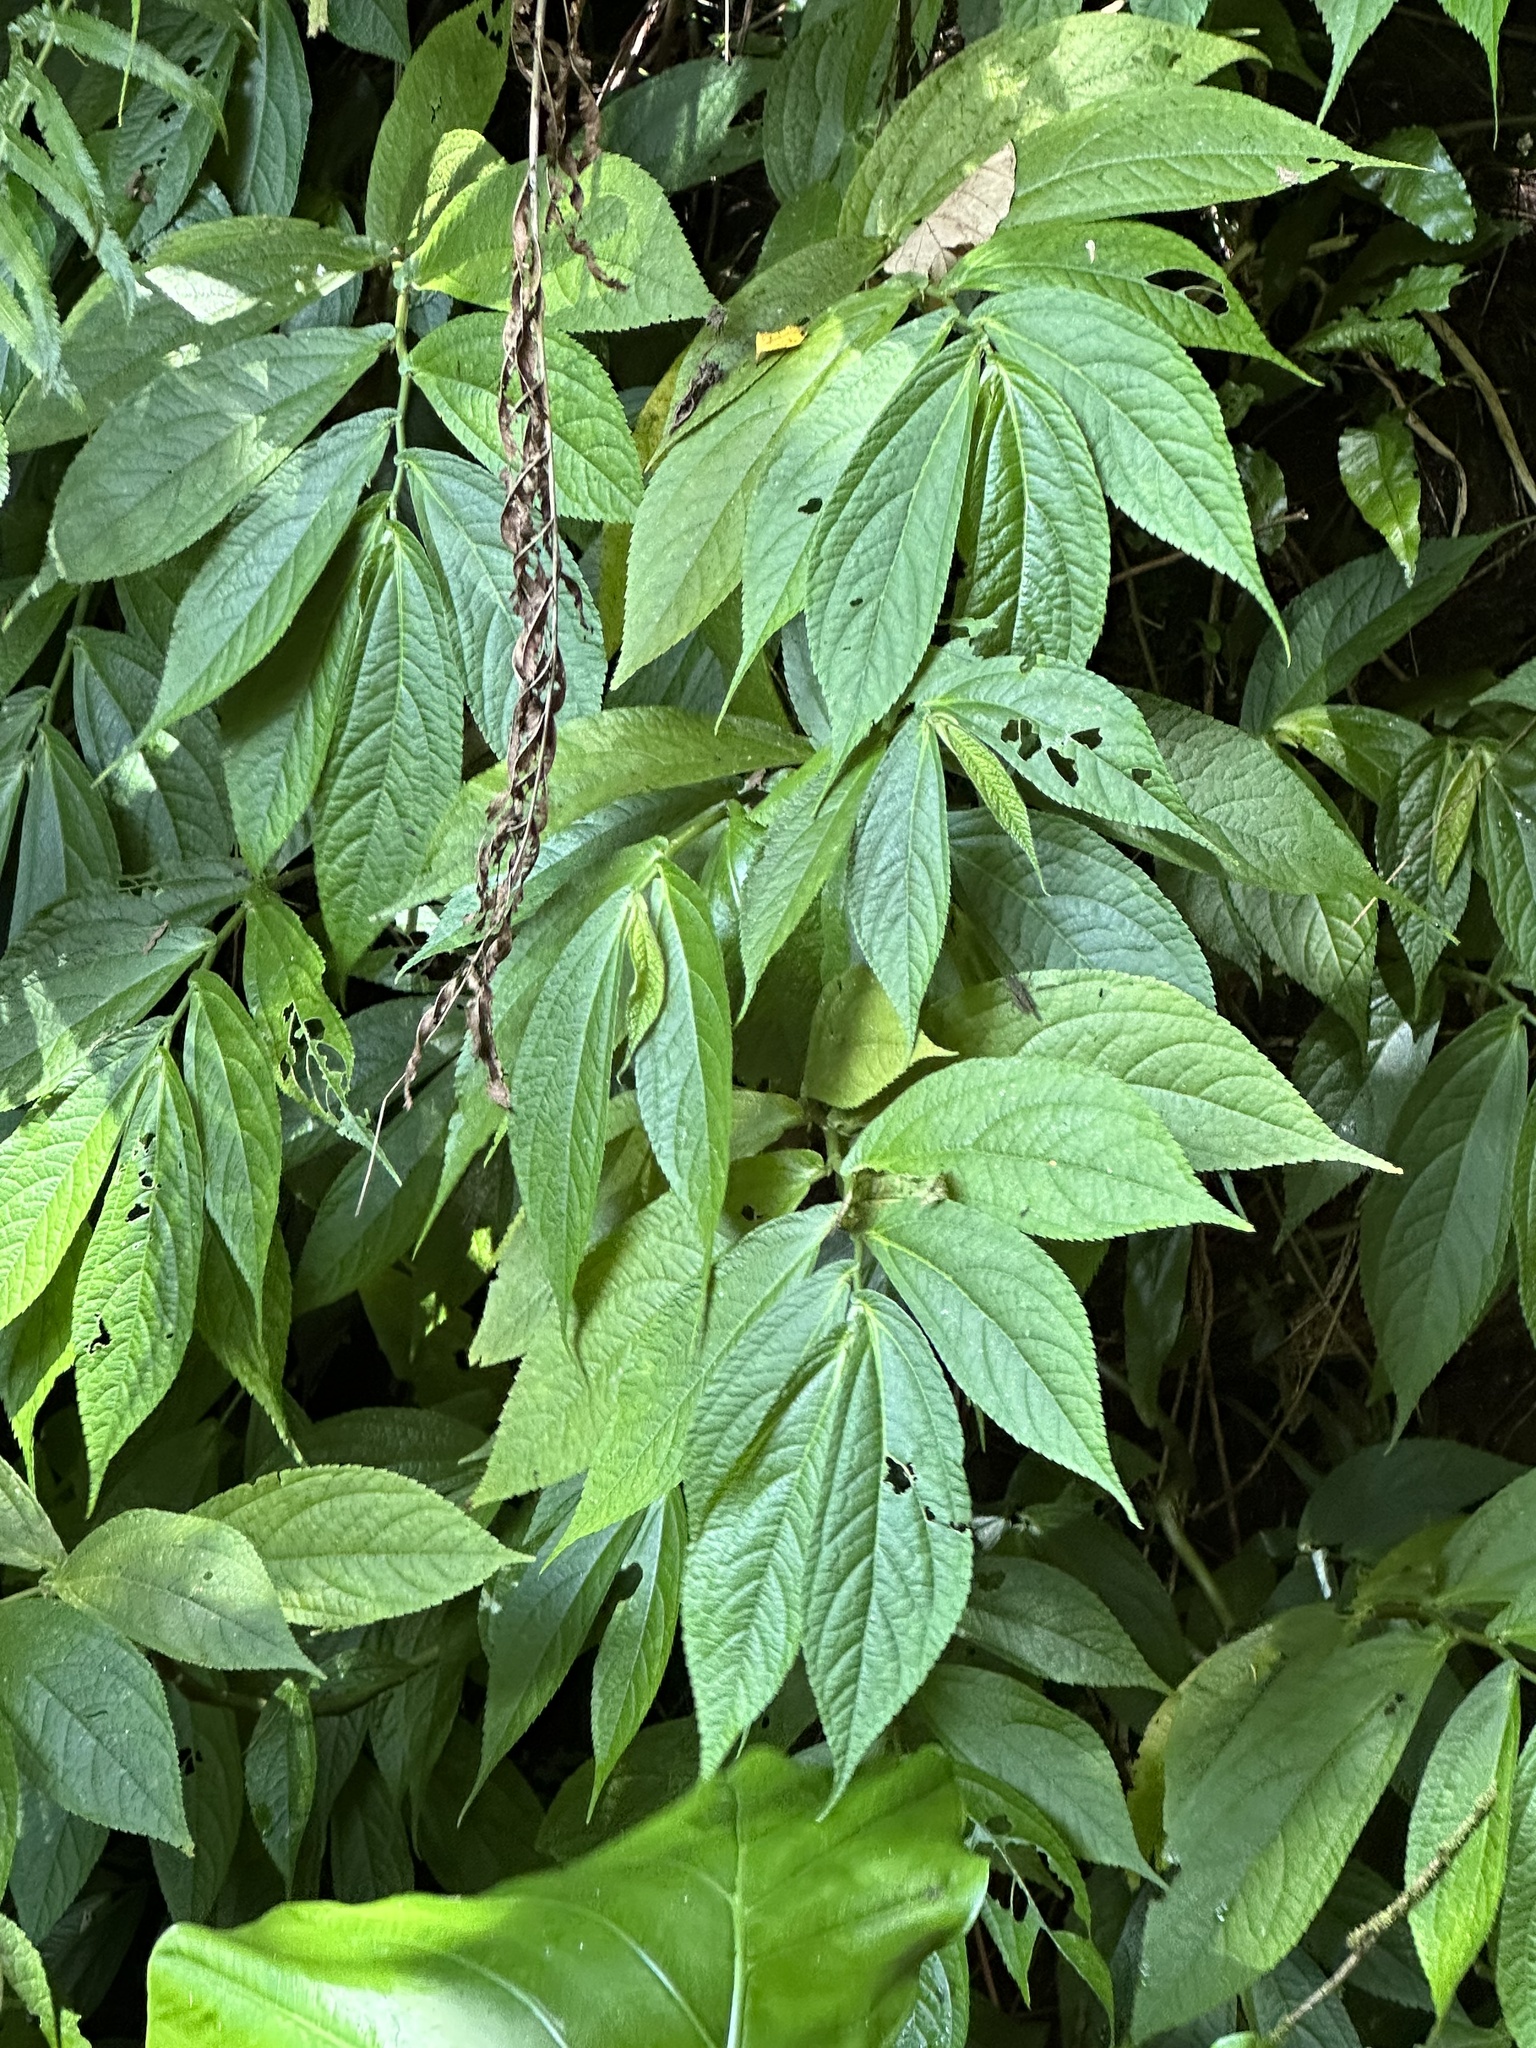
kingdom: Plantae
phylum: Tracheophyta
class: Magnoliopsida
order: Rosales
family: Urticaceae
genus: Elatostema
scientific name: Elatostema platyphyllum
